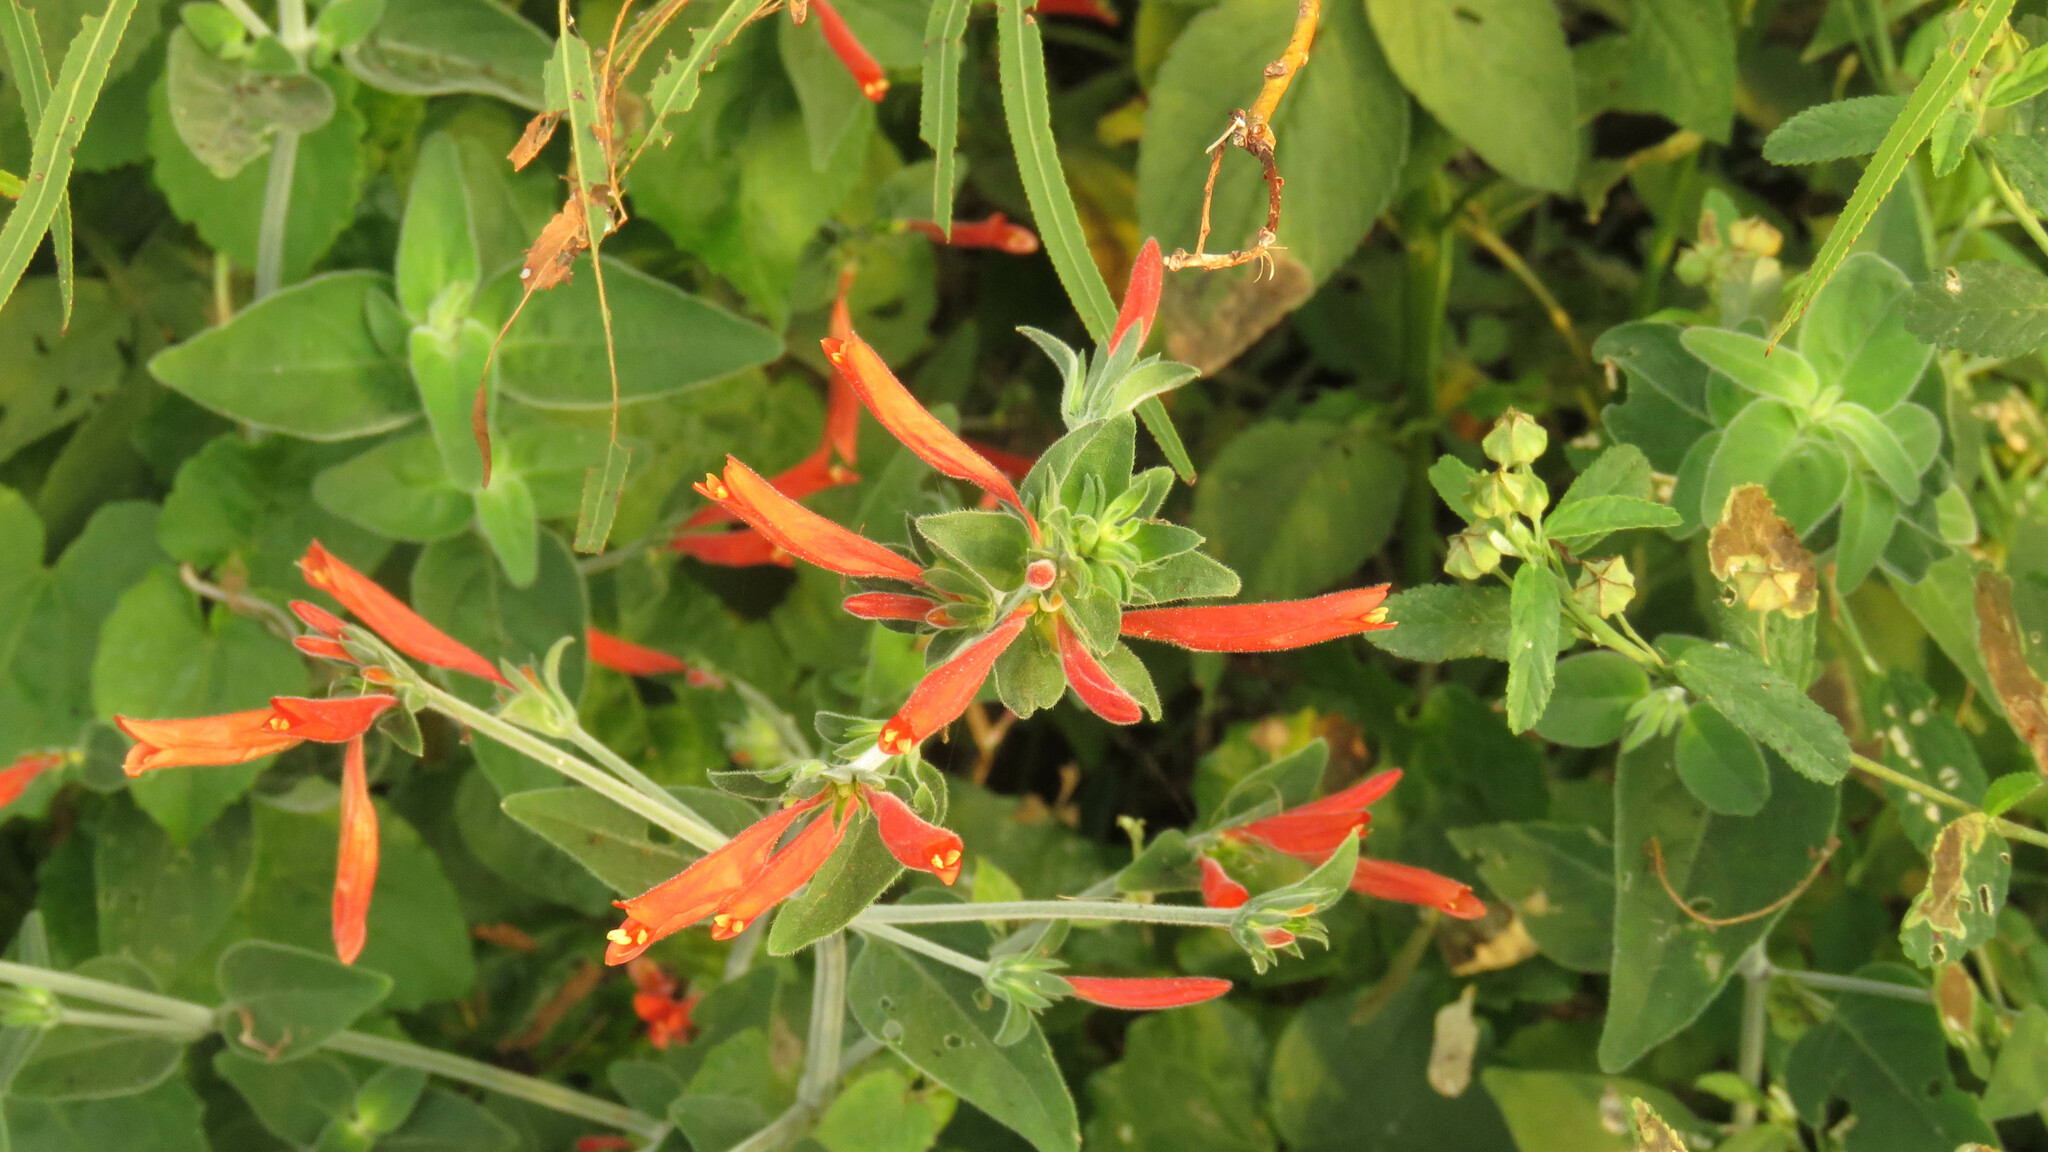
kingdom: Plantae
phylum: Tracheophyta
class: Magnoliopsida
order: Lamiales
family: Acanthaceae
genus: Dicliptera
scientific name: Dicliptera squarrosa
